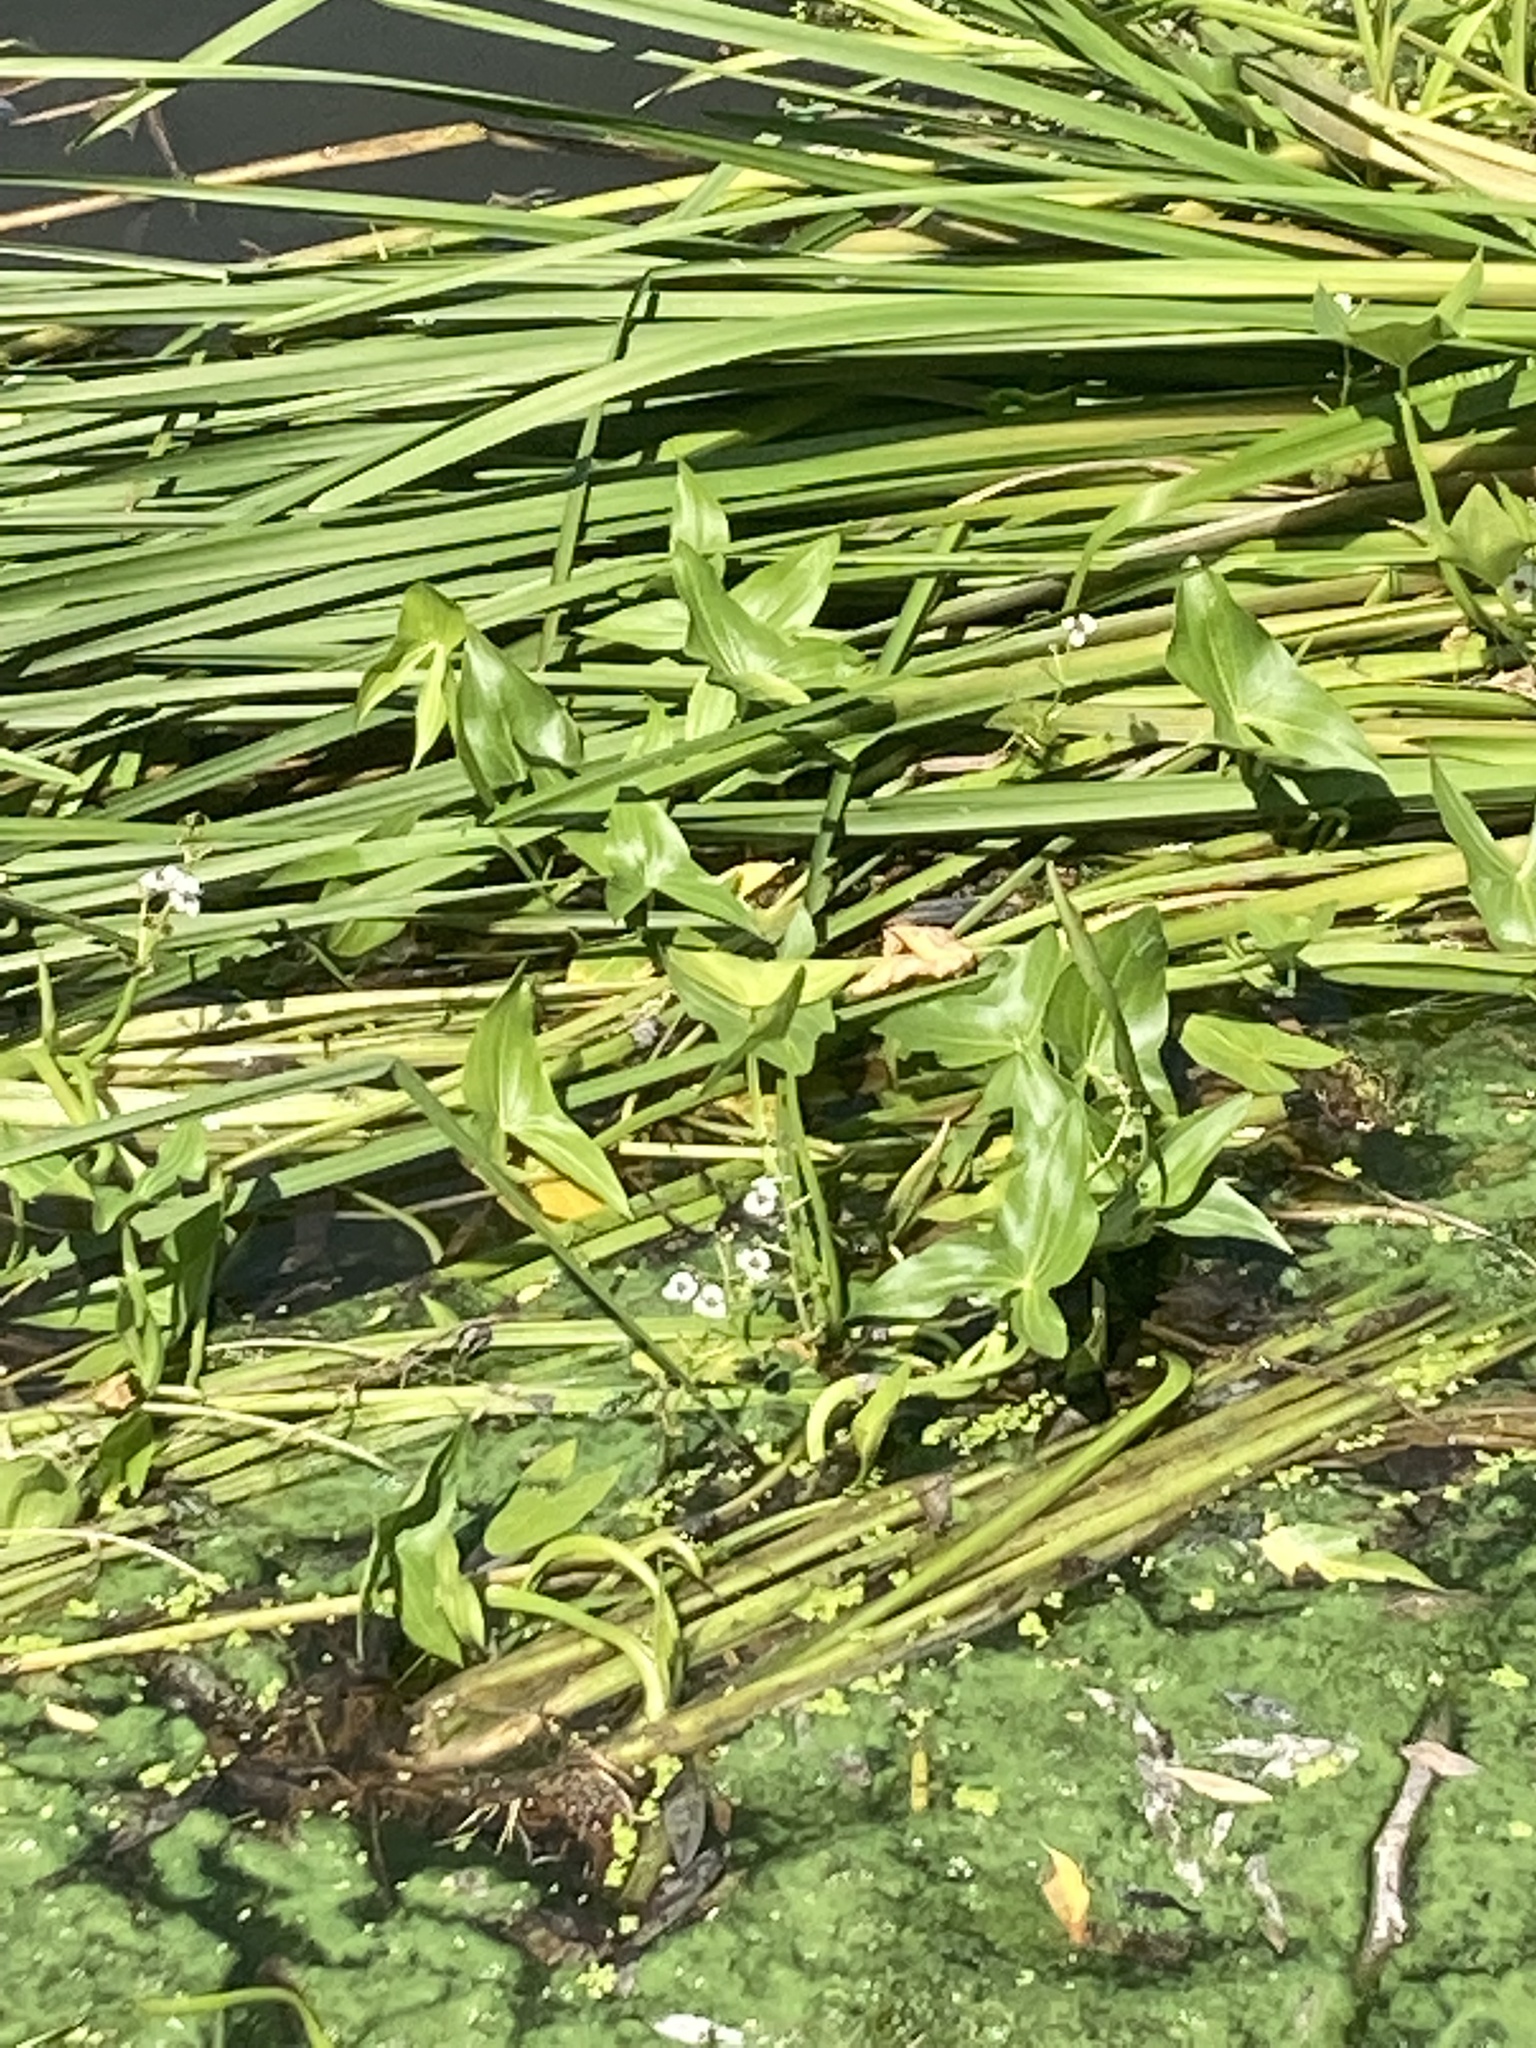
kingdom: Plantae
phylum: Tracheophyta
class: Liliopsida
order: Alismatales
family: Alismataceae
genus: Sagittaria
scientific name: Sagittaria sagittifolia
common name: Arrowhead
